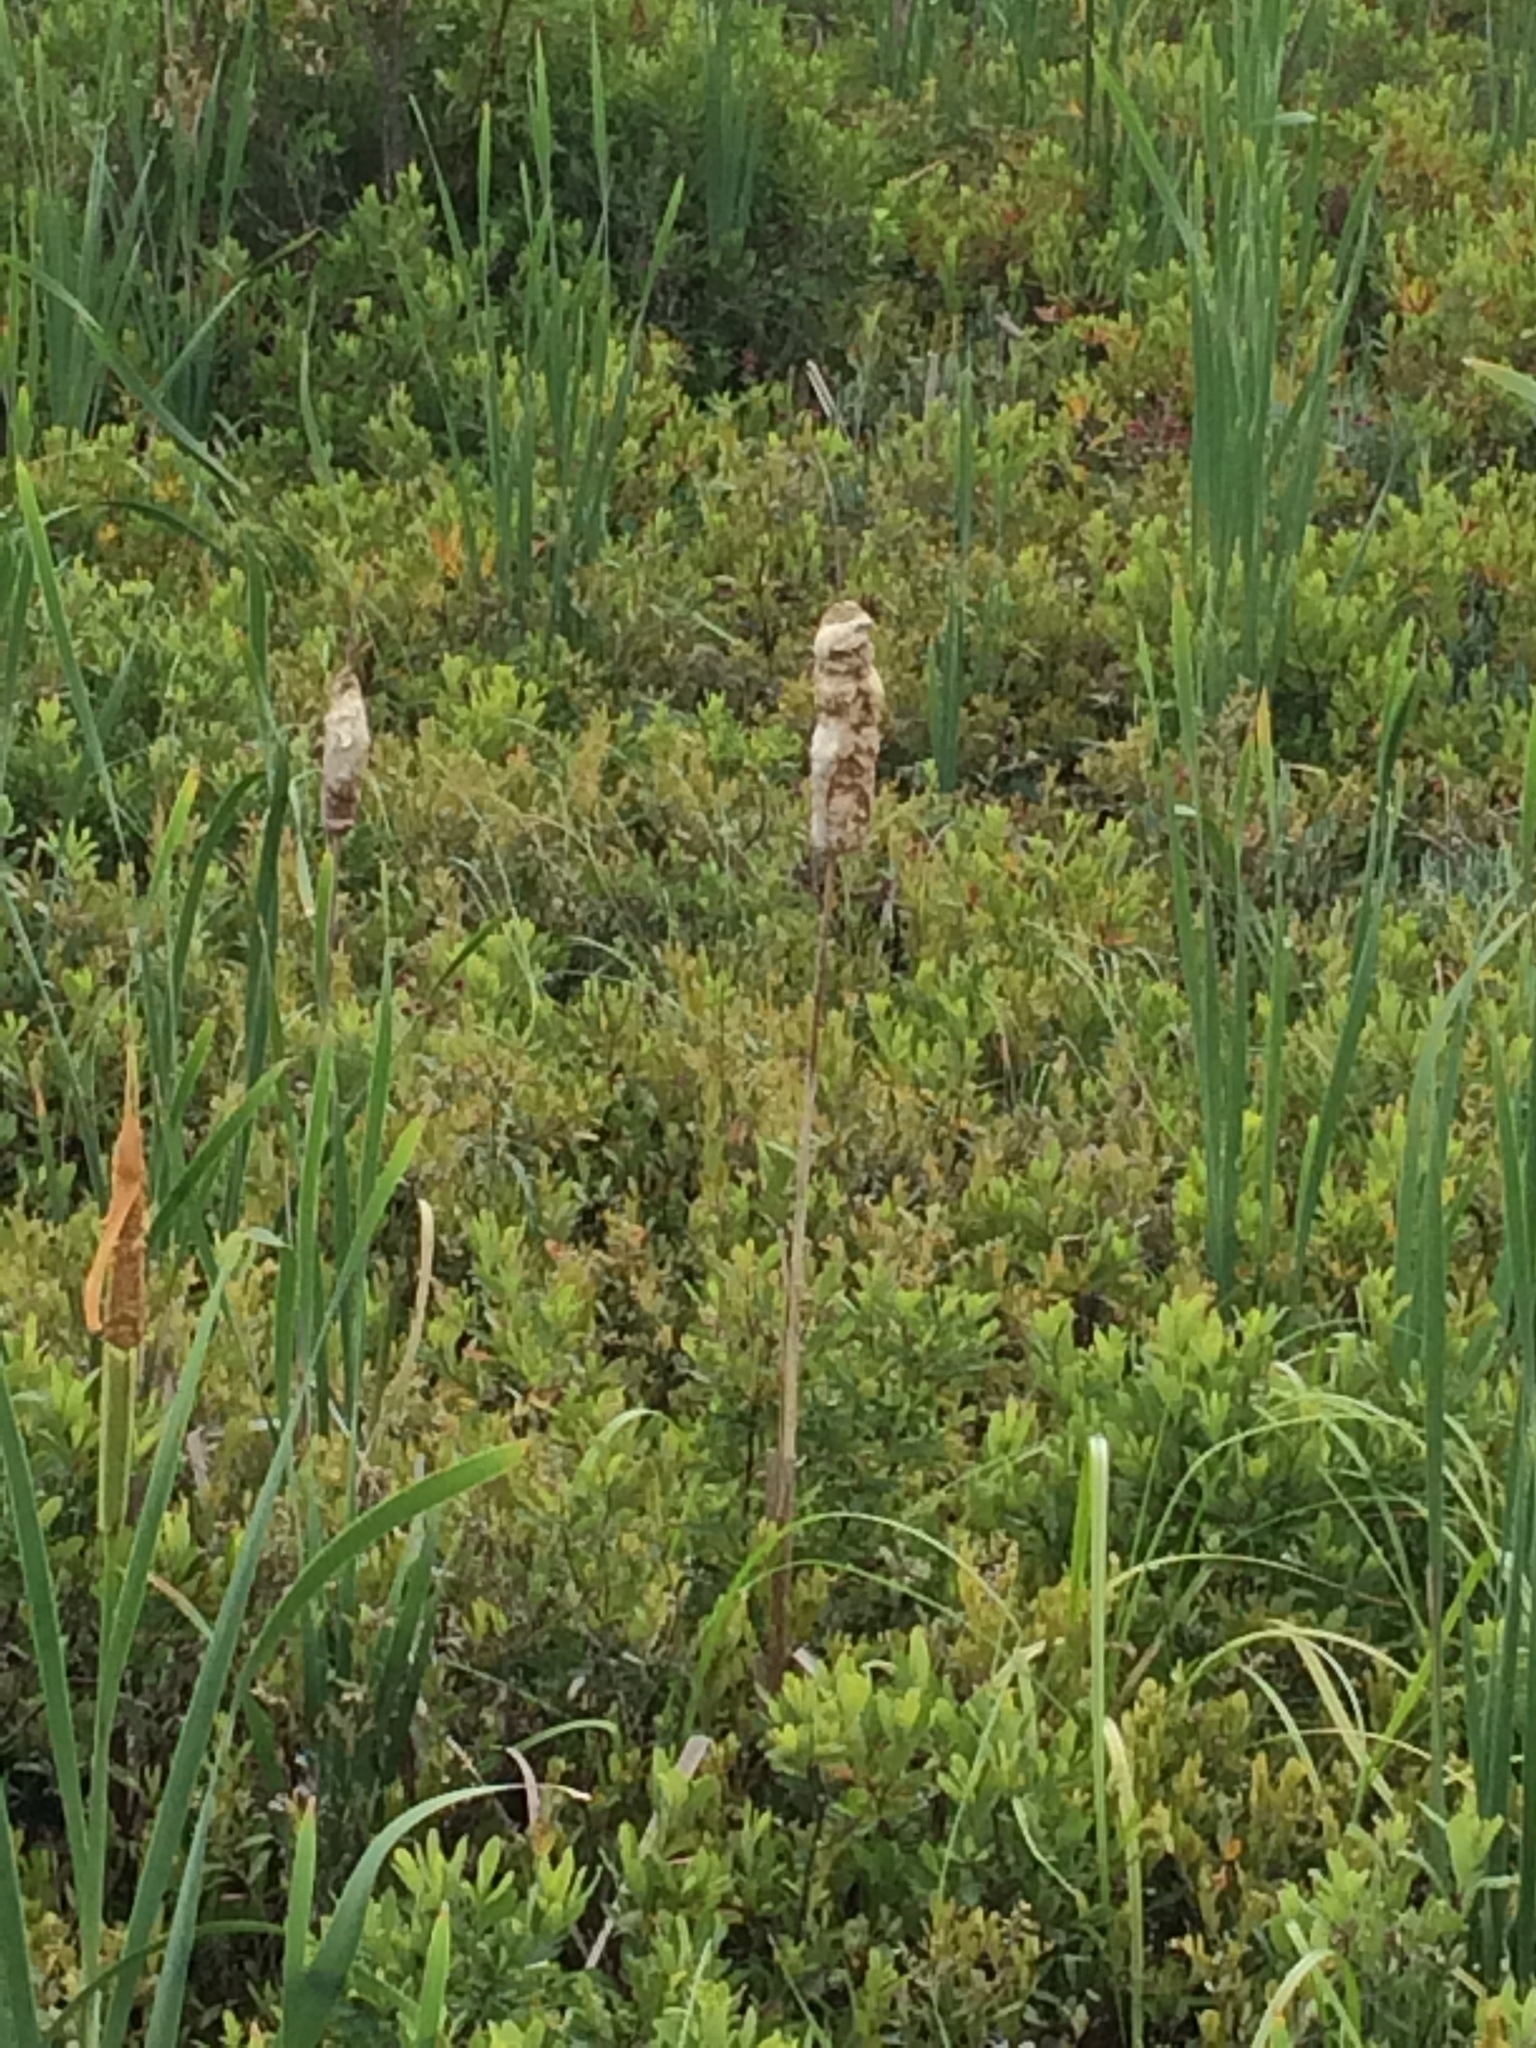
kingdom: Plantae
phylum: Tracheophyta
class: Liliopsida
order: Poales
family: Typhaceae
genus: Typha
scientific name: Typha latifolia
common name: Broadleaf cattail
